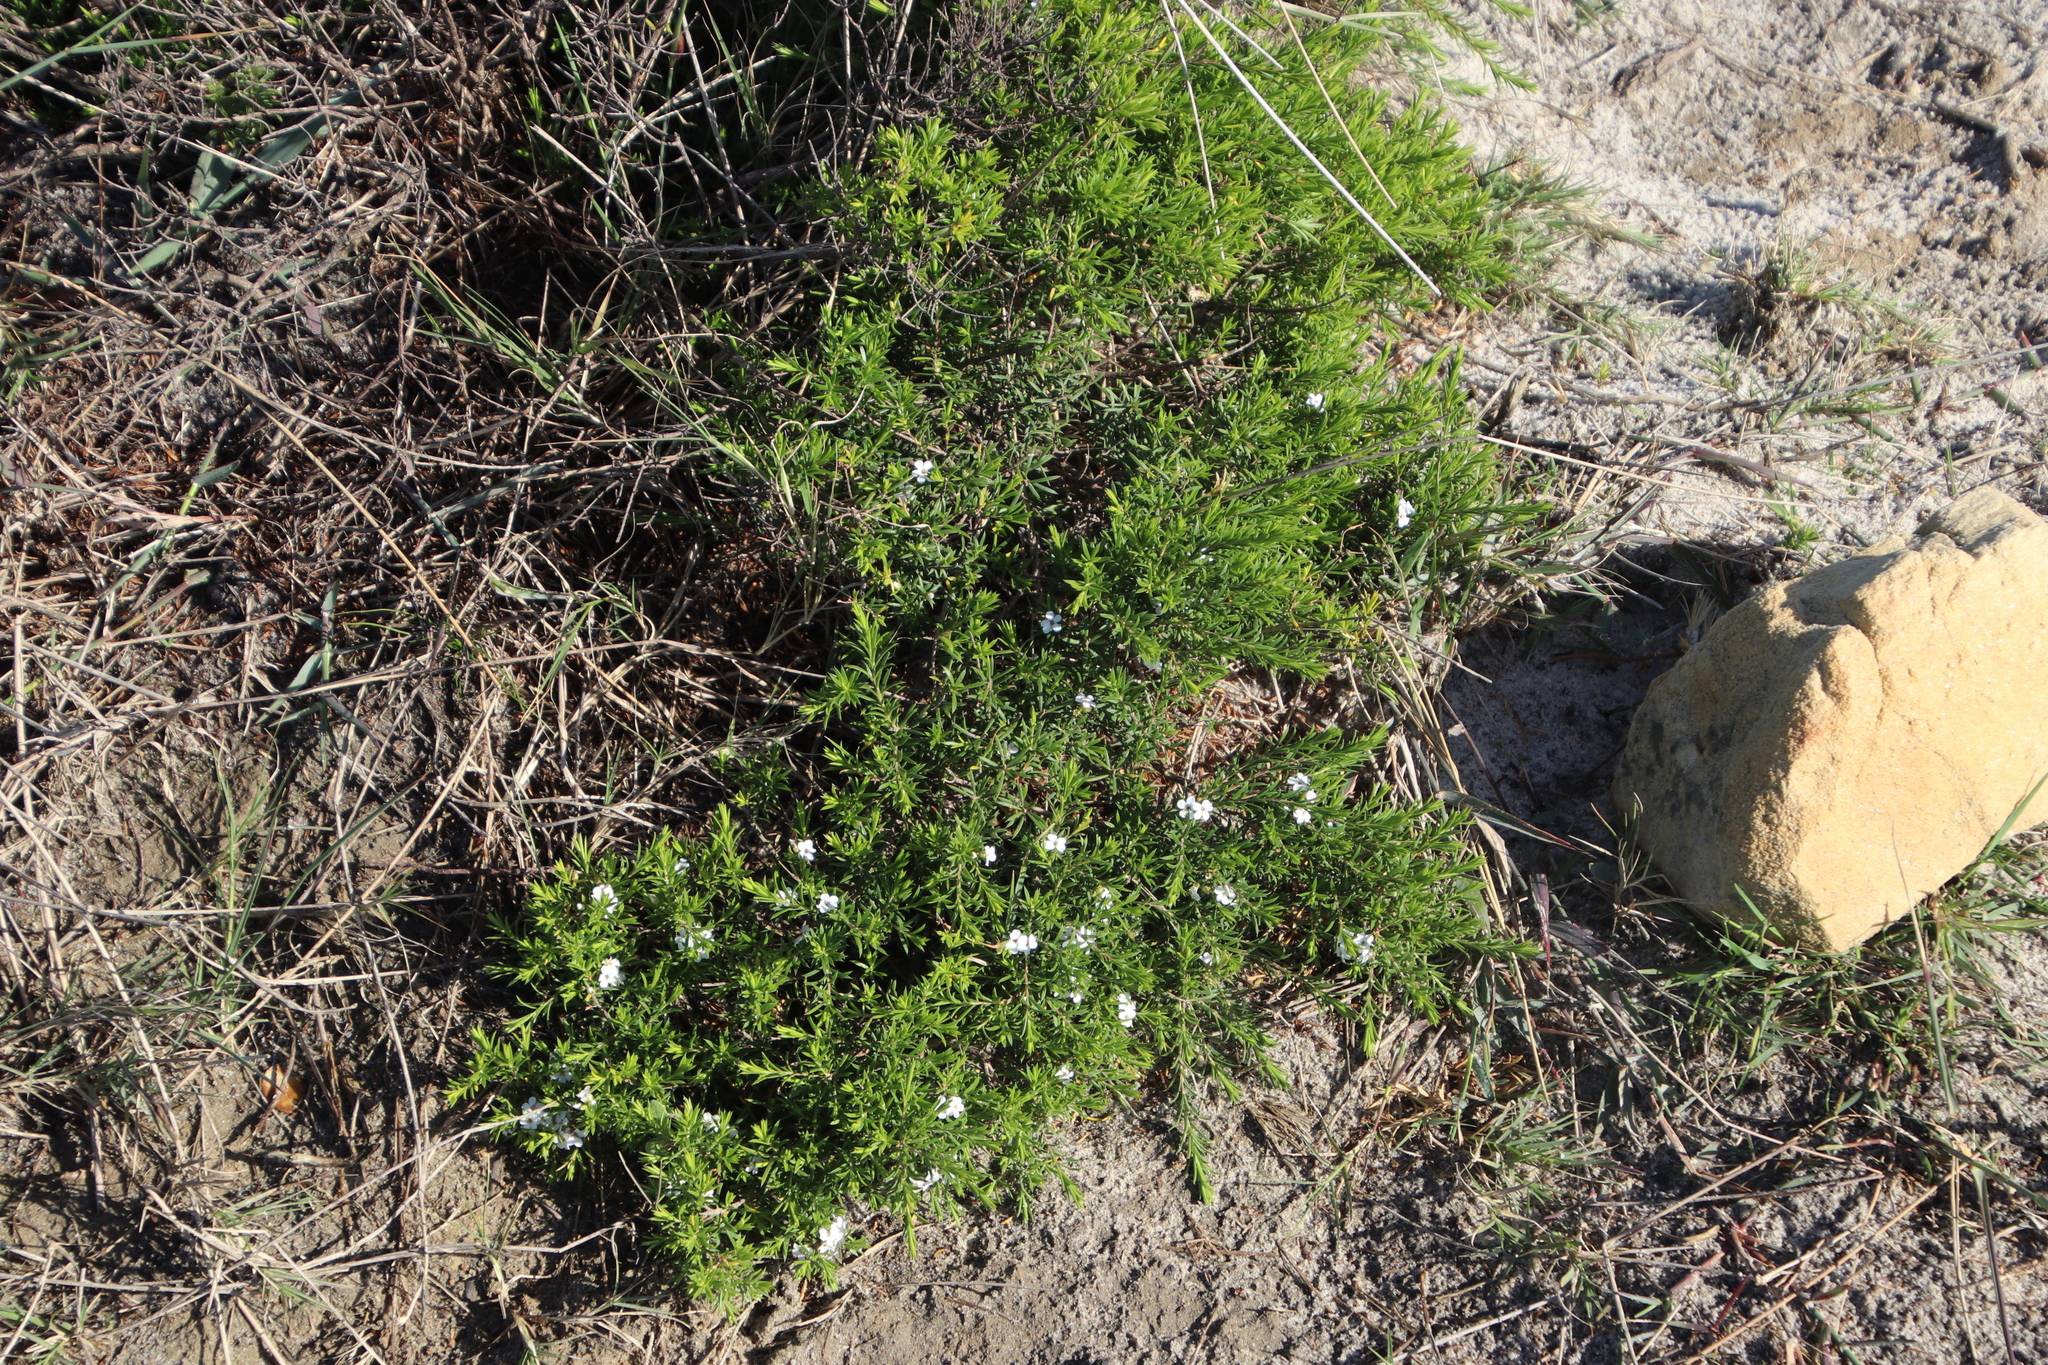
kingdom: Plantae
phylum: Tracheophyta
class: Magnoliopsida
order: Sapindales
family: Rutaceae
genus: Coleonema
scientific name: Coleonema album
